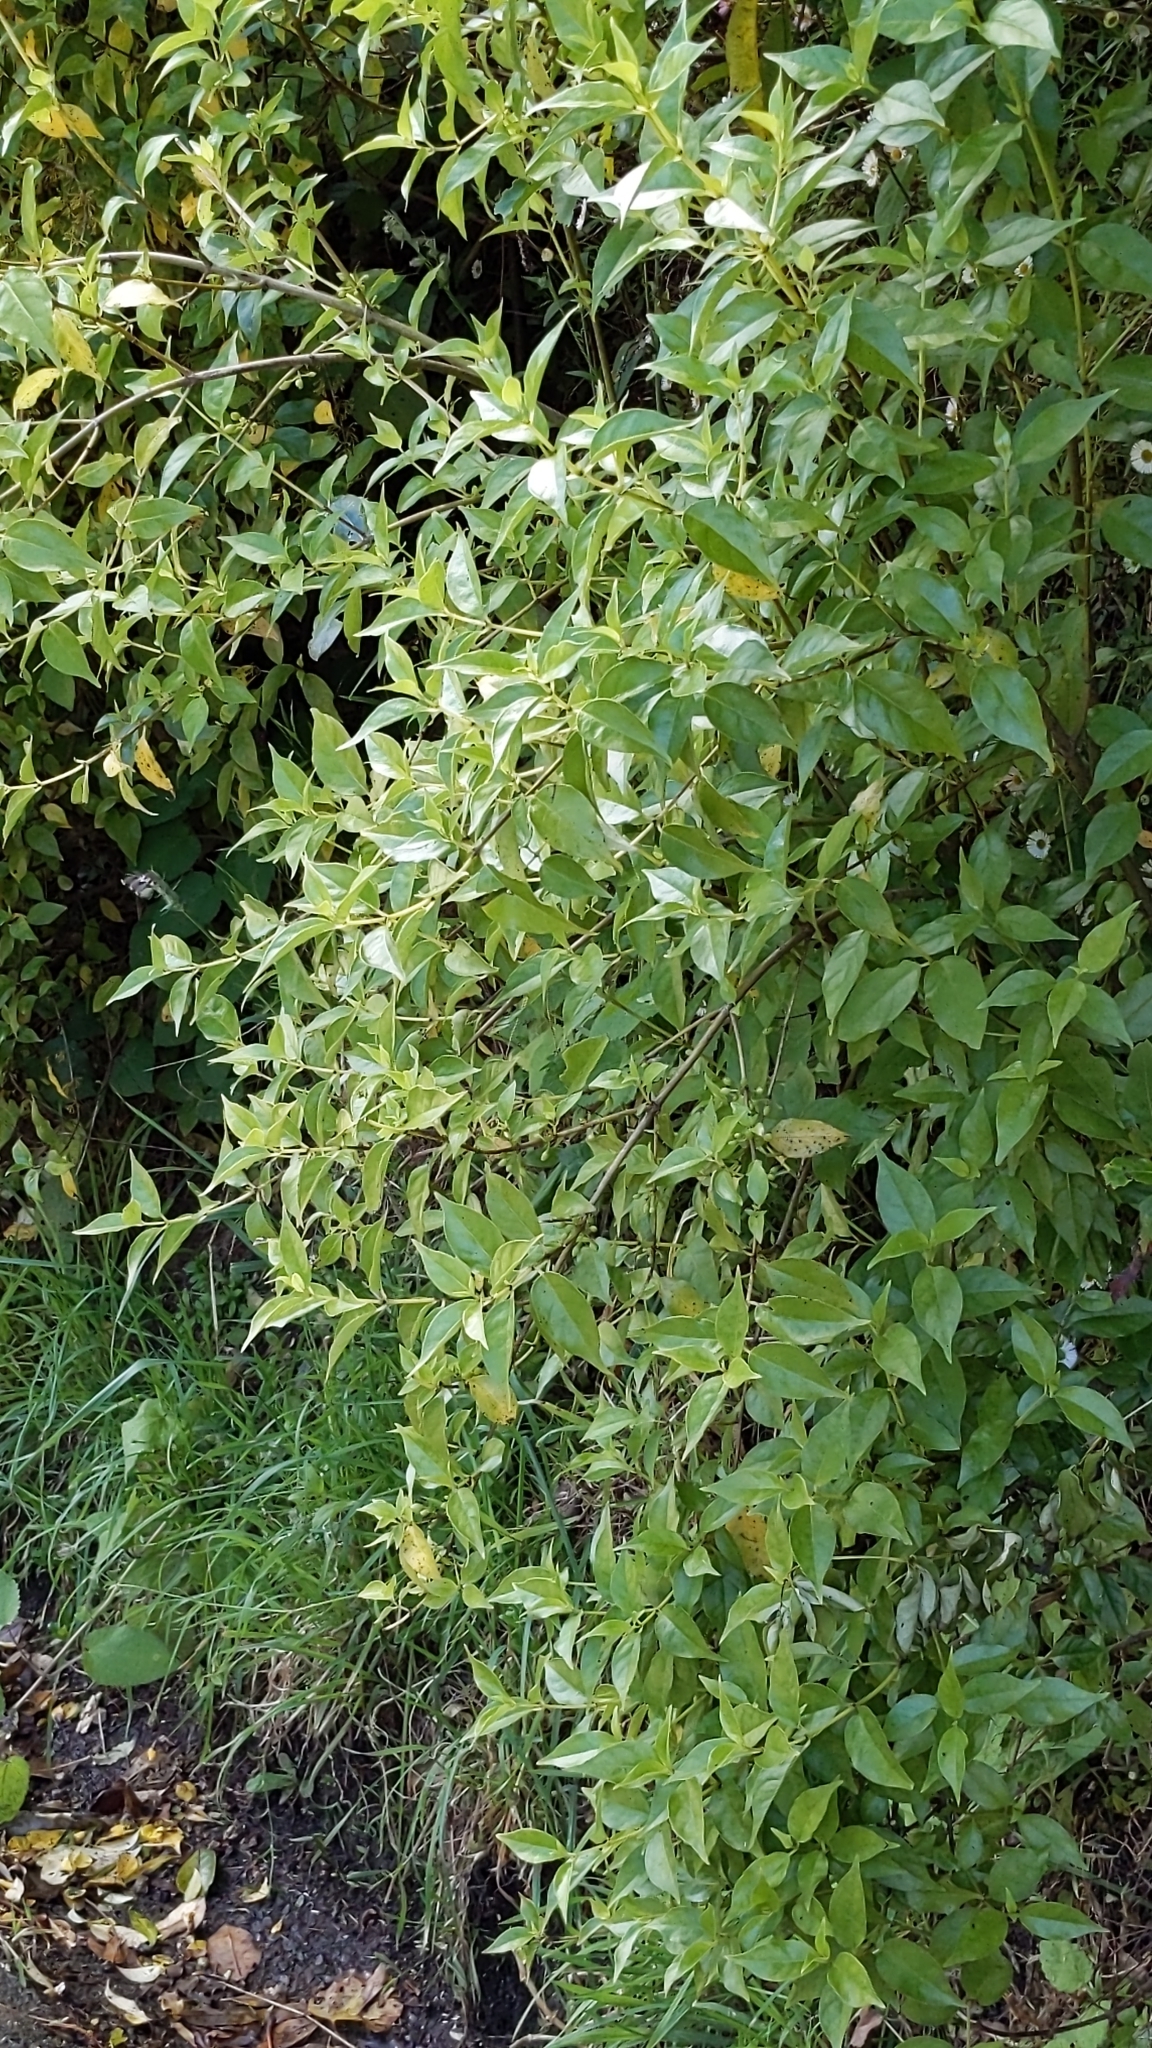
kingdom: Plantae
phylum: Tracheophyta
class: Magnoliopsida
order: Gentianales
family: Loganiaceae
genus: Geniostoma
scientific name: Geniostoma ligustrifolium
